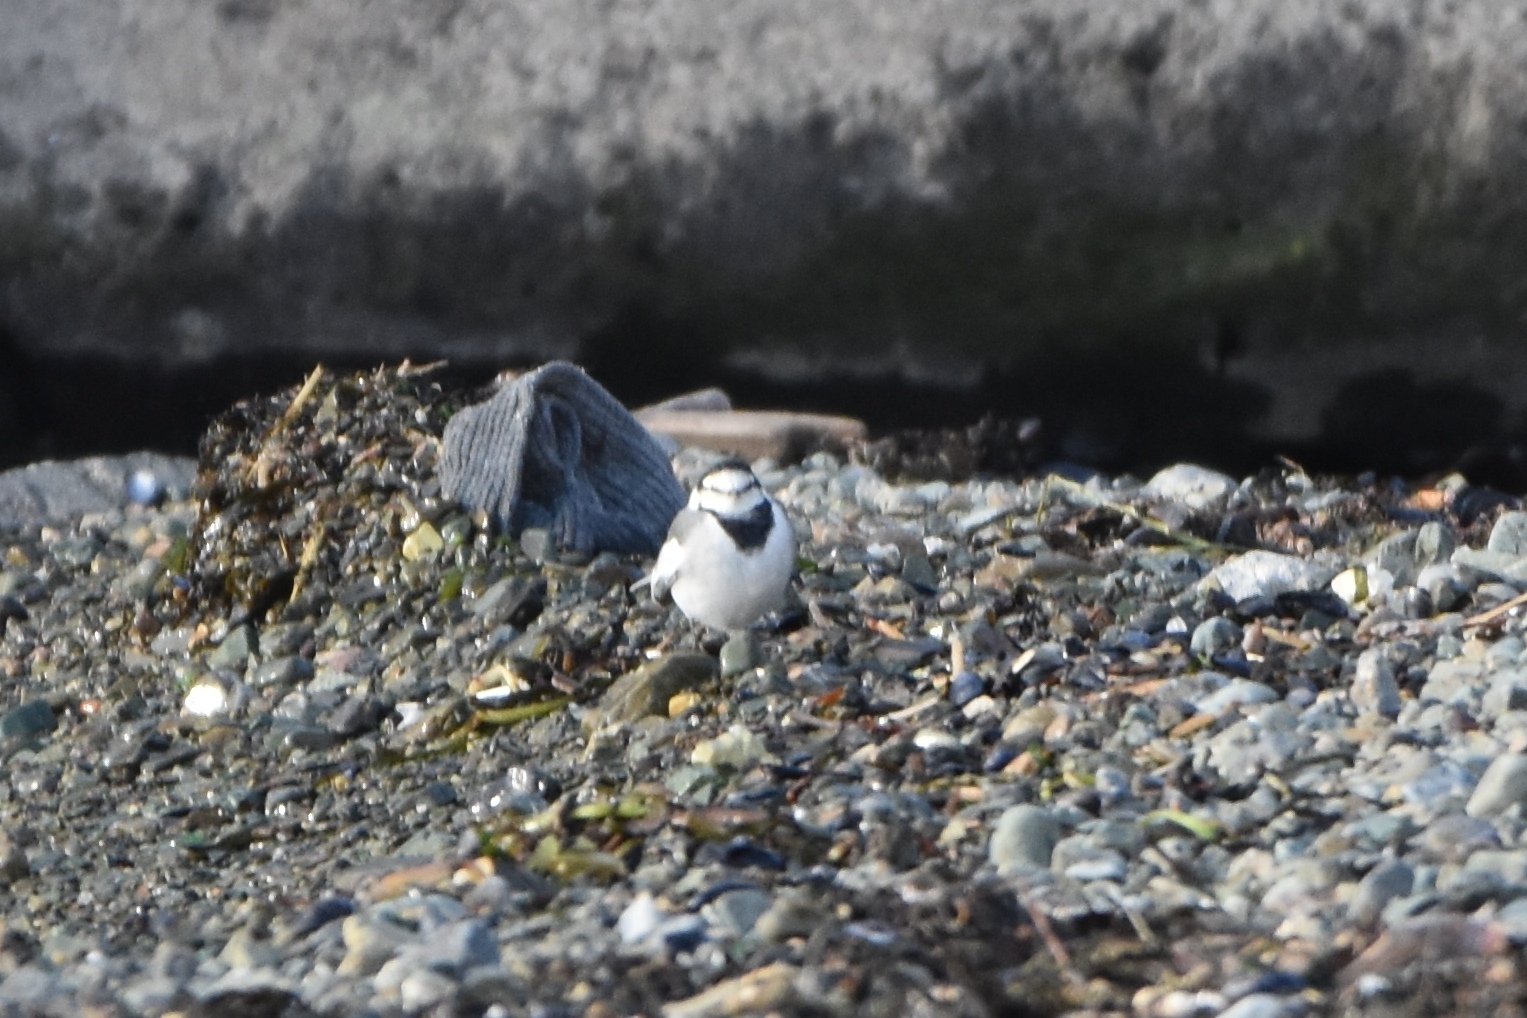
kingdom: Animalia
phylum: Chordata
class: Aves
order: Passeriformes
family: Motacillidae
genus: Motacilla
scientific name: Motacilla alba
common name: White wagtail
